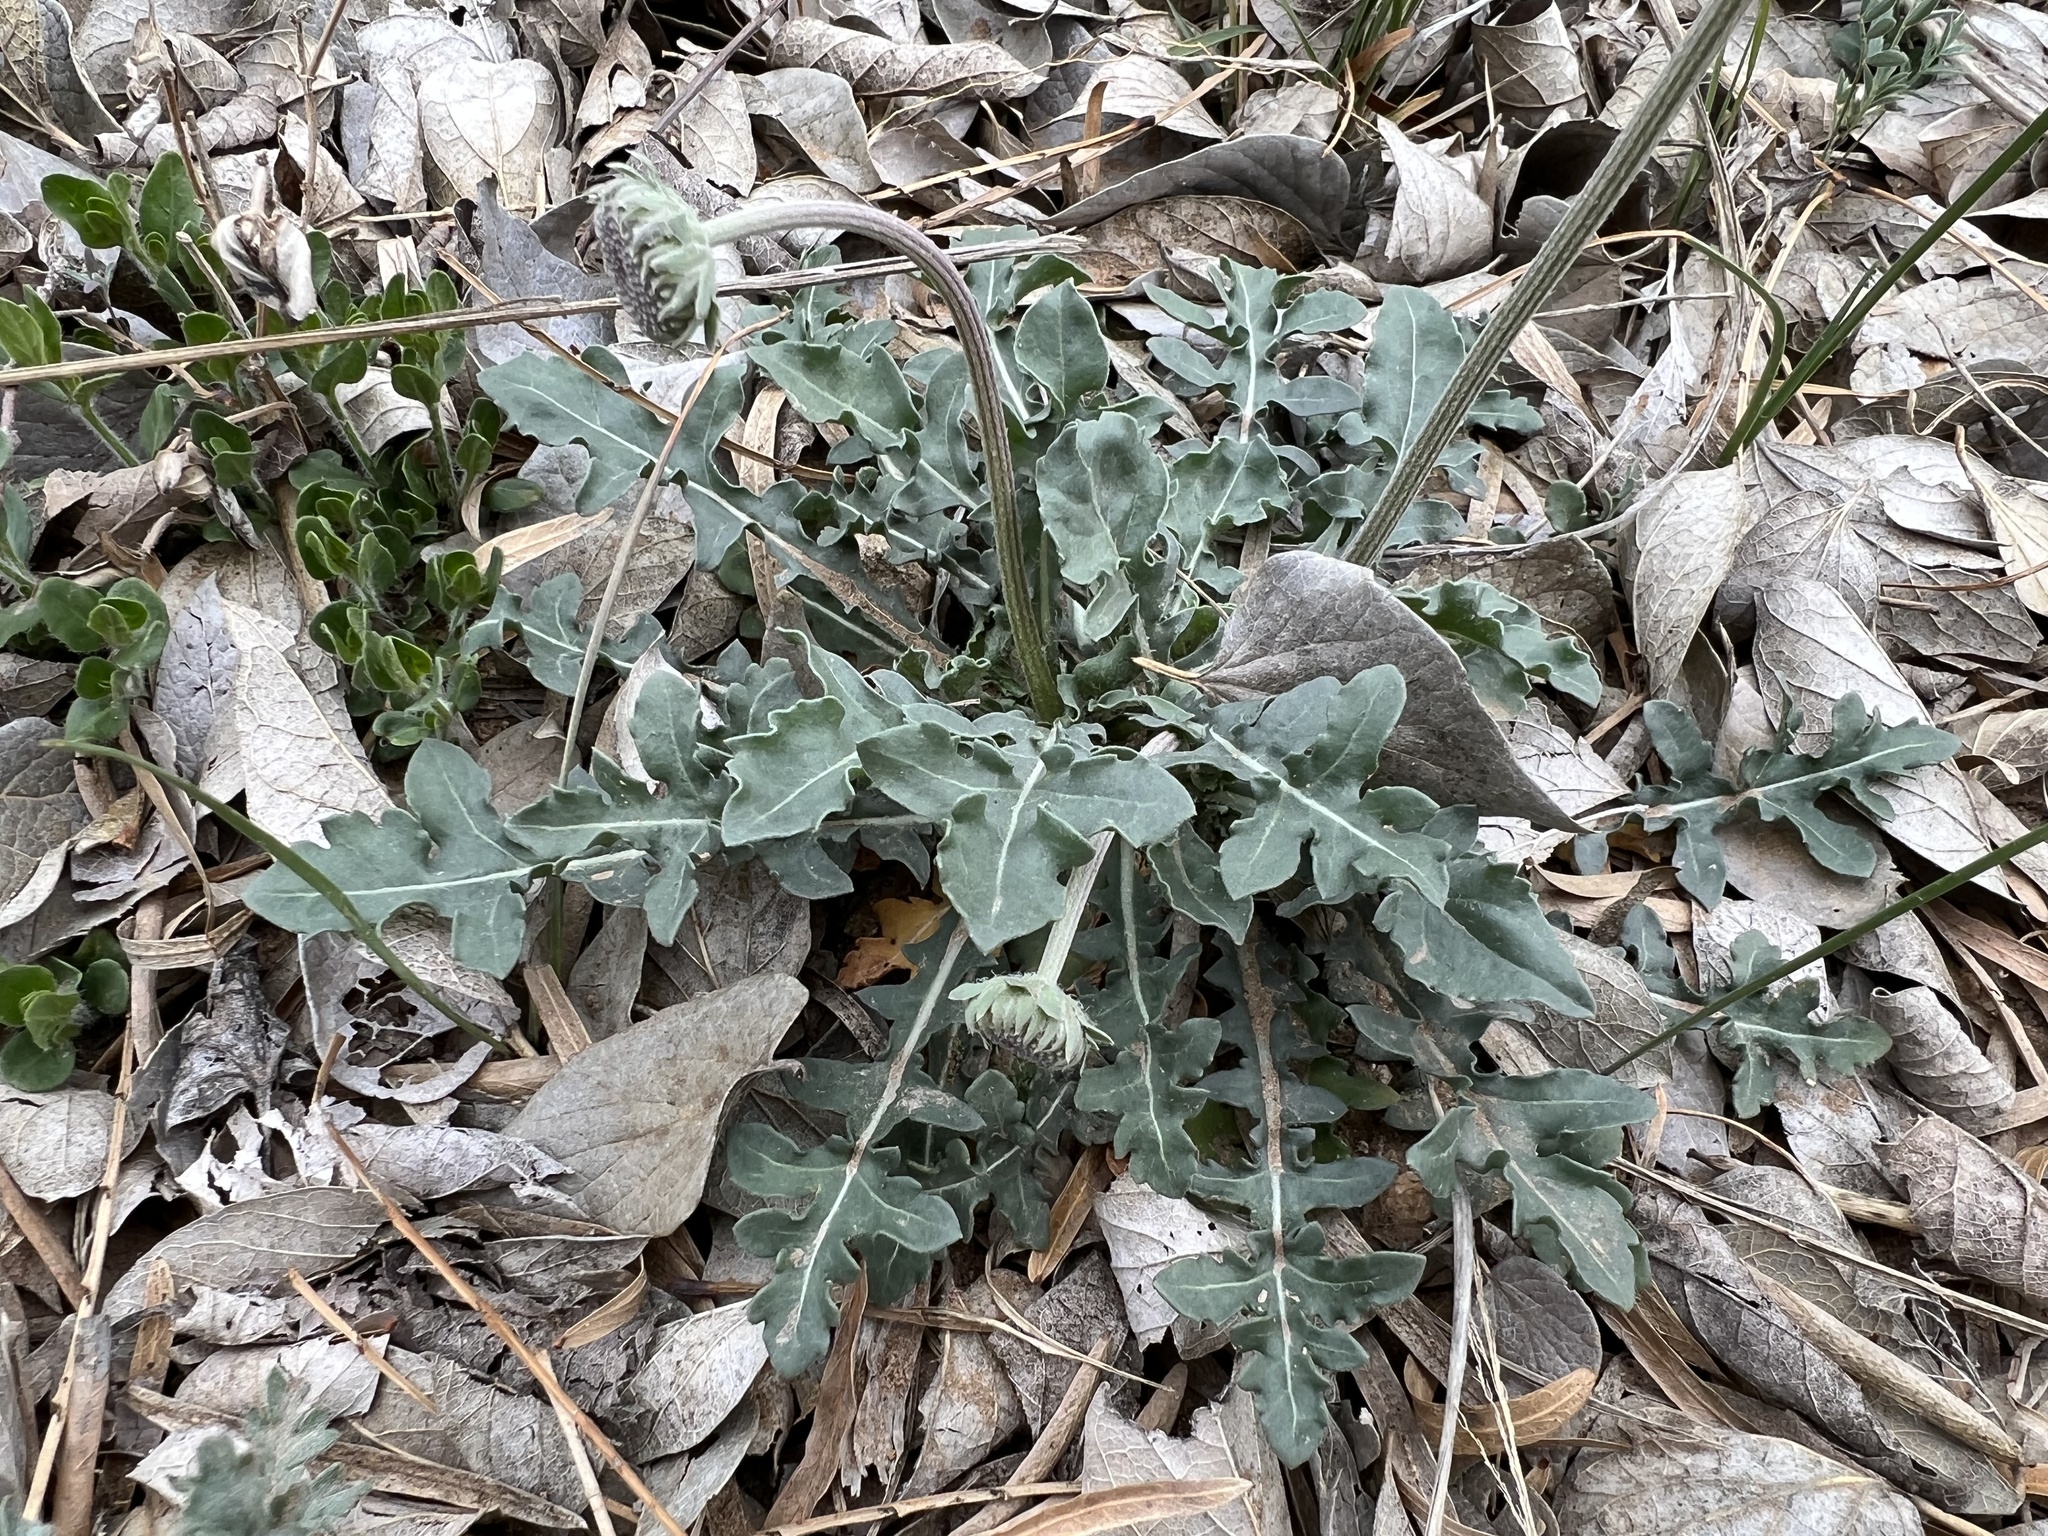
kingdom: Plantae
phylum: Tracheophyta
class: Magnoliopsida
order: Asterales
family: Asteraceae
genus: Gaillardia
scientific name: Gaillardia suavis
